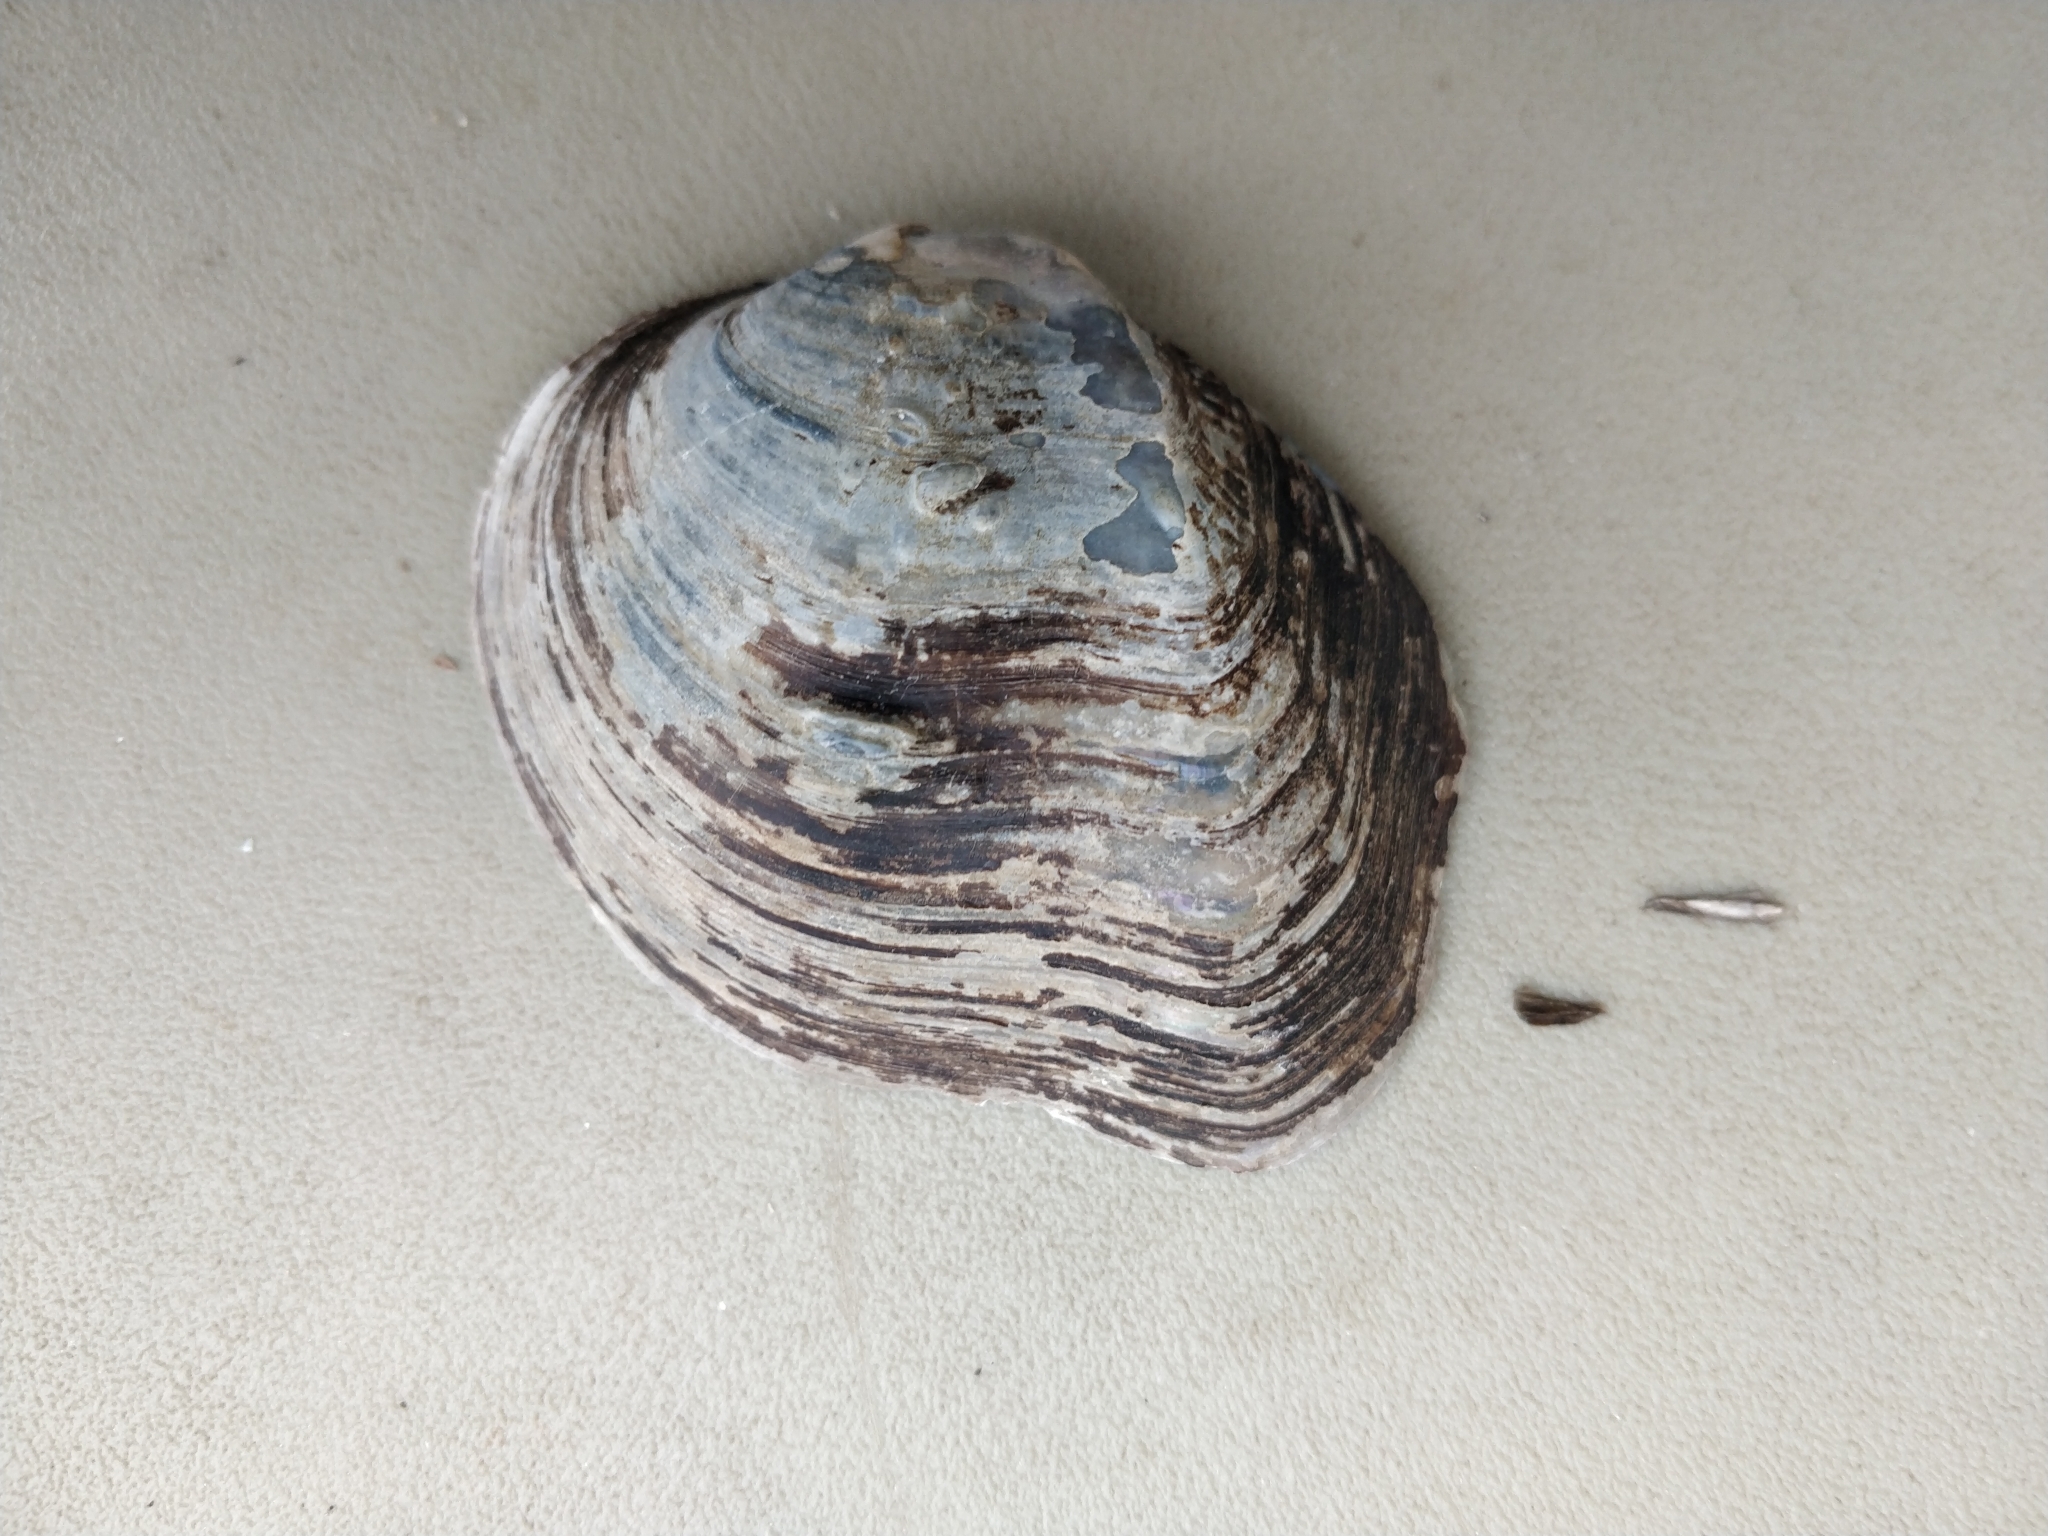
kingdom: Animalia
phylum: Mollusca
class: Bivalvia
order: Unionida
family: Unionidae
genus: Quadrula
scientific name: Quadrula quadrula
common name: Mapleleaf
